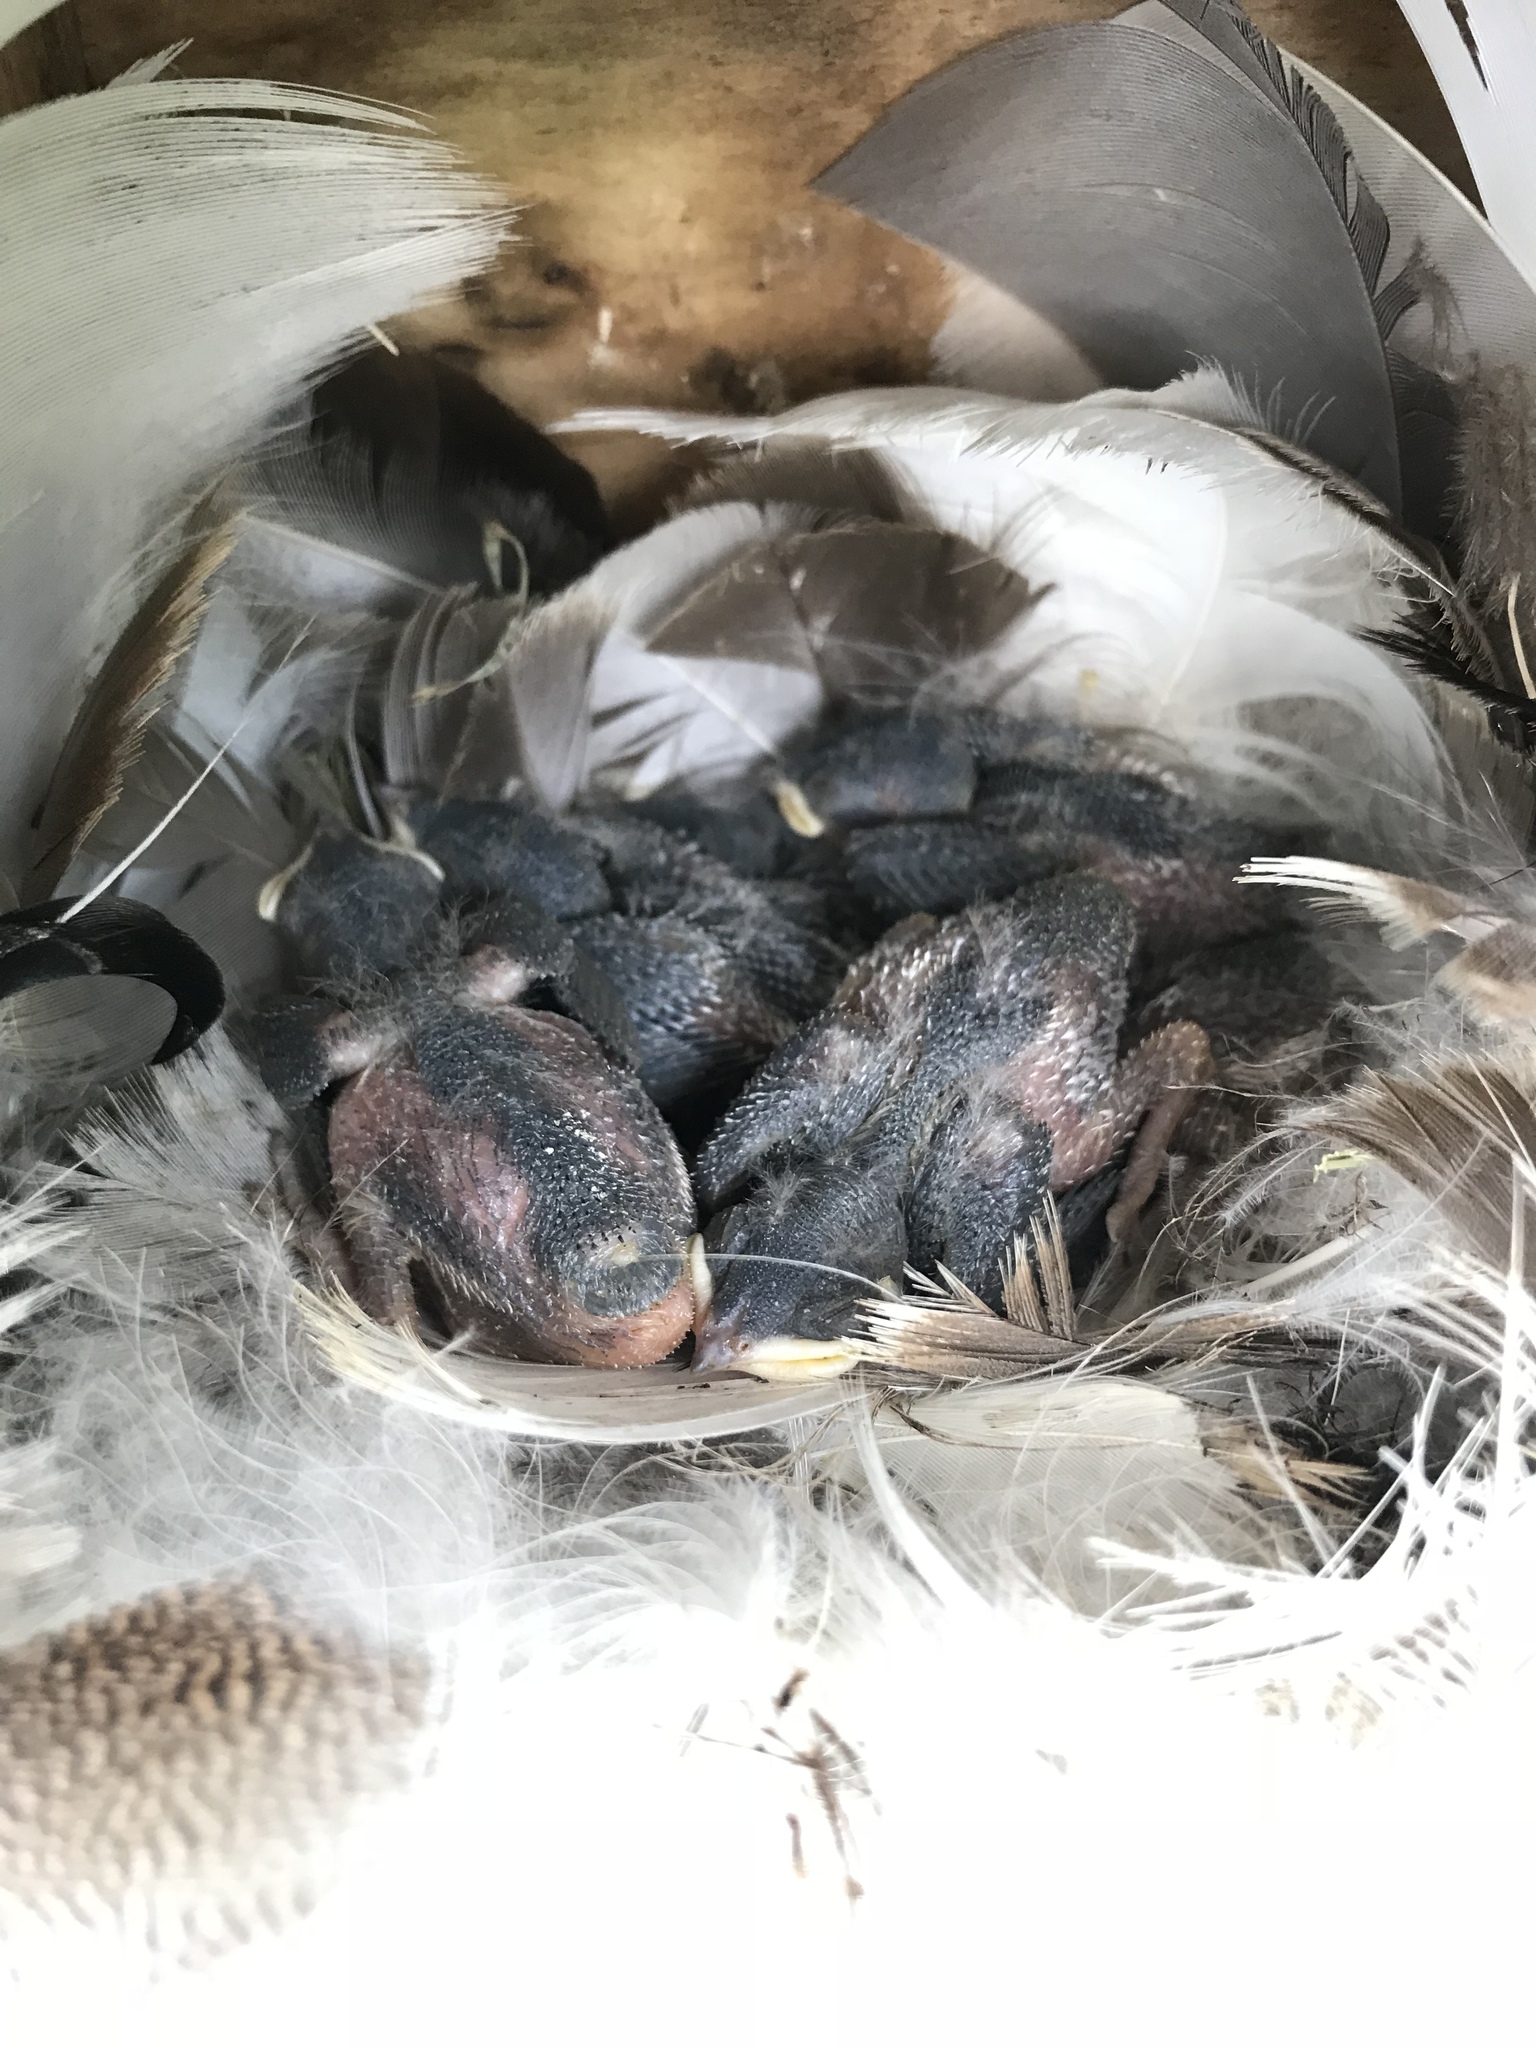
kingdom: Animalia
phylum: Chordata
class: Aves
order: Passeriformes
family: Hirundinidae
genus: Tachycineta
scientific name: Tachycineta bicolor
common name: Tree swallow
